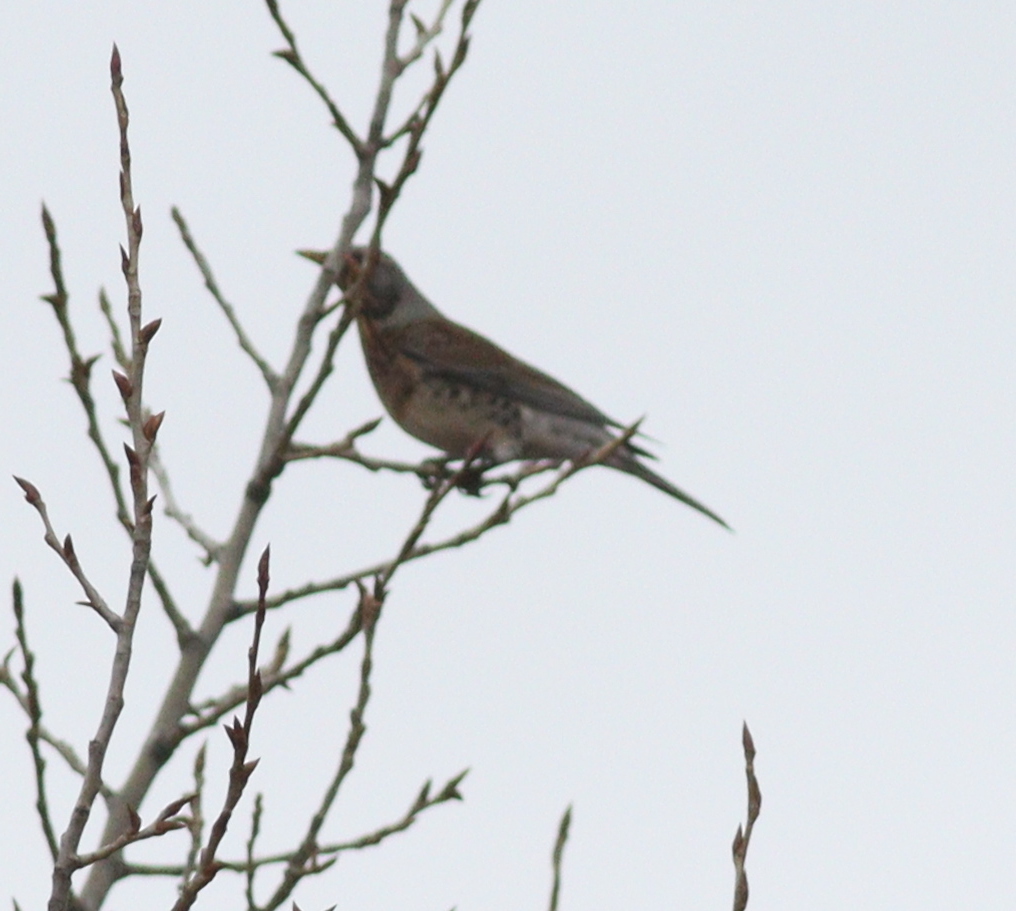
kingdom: Animalia
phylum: Chordata
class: Aves
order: Passeriformes
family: Turdidae
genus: Turdus
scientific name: Turdus pilaris
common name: Fieldfare
